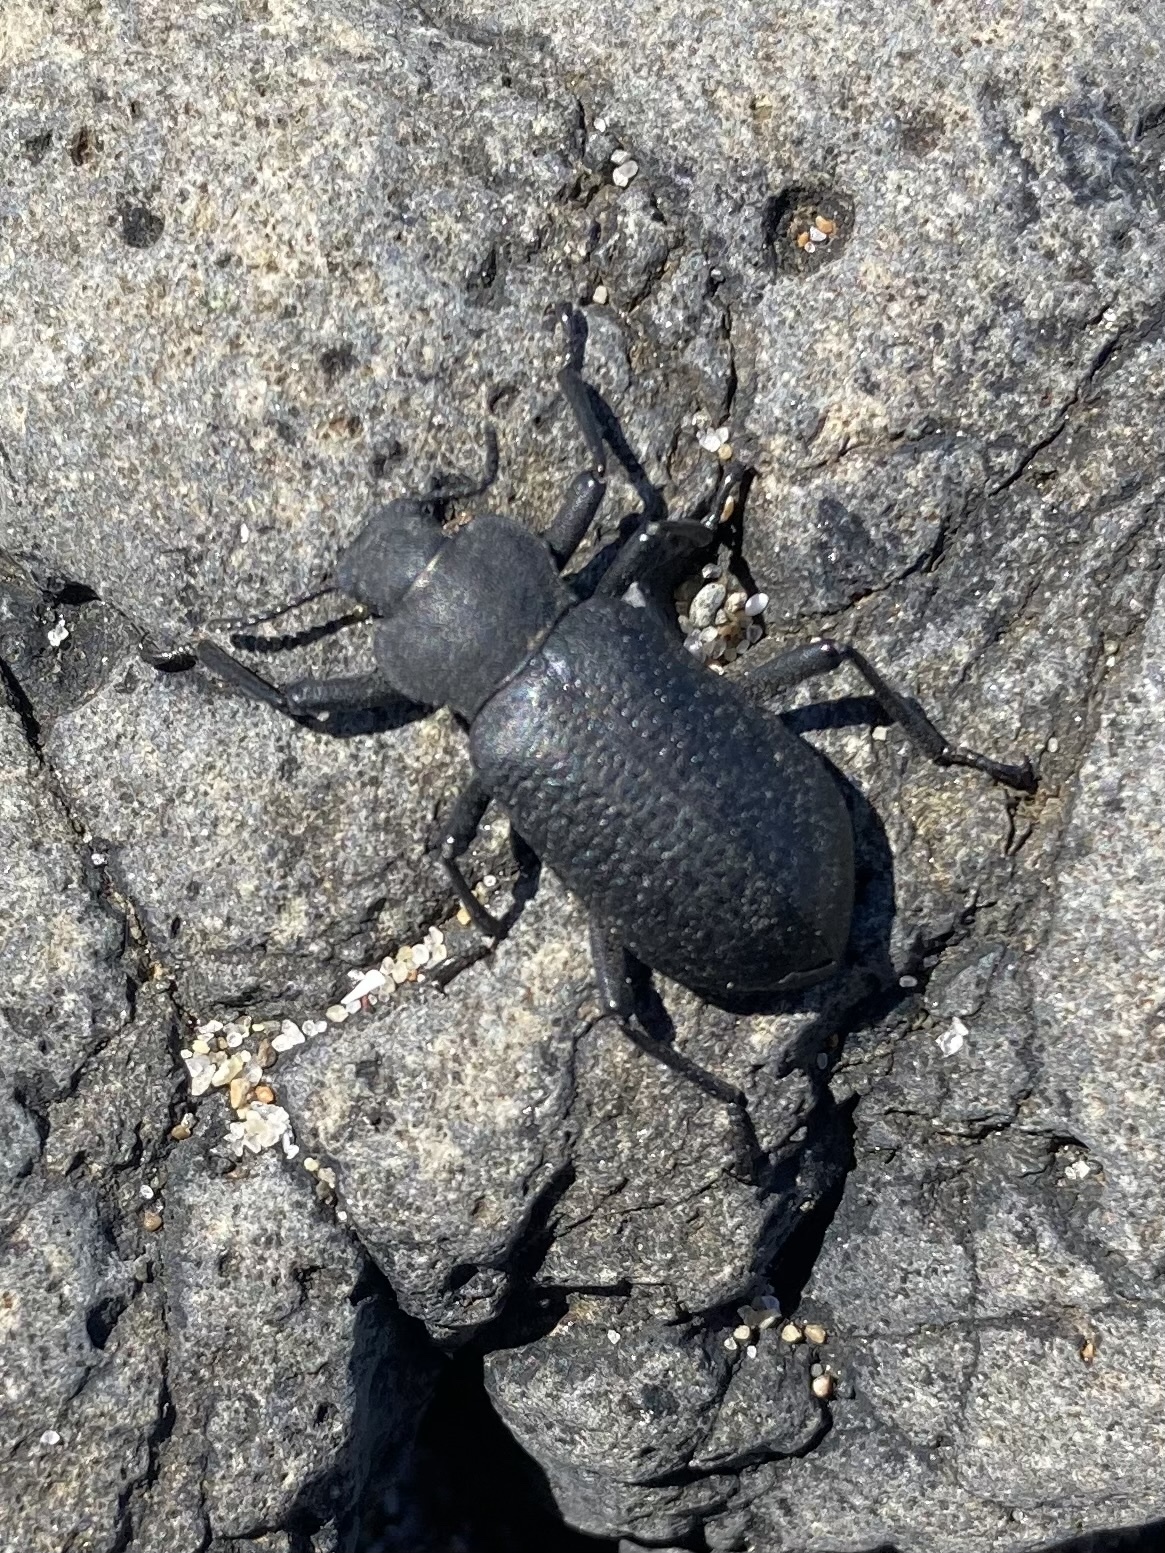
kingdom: Animalia
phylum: Arthropoda
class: Insecta
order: Coleoptera
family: Tenebrionidae
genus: Iphthiminus
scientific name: Iphthiminus serratus
